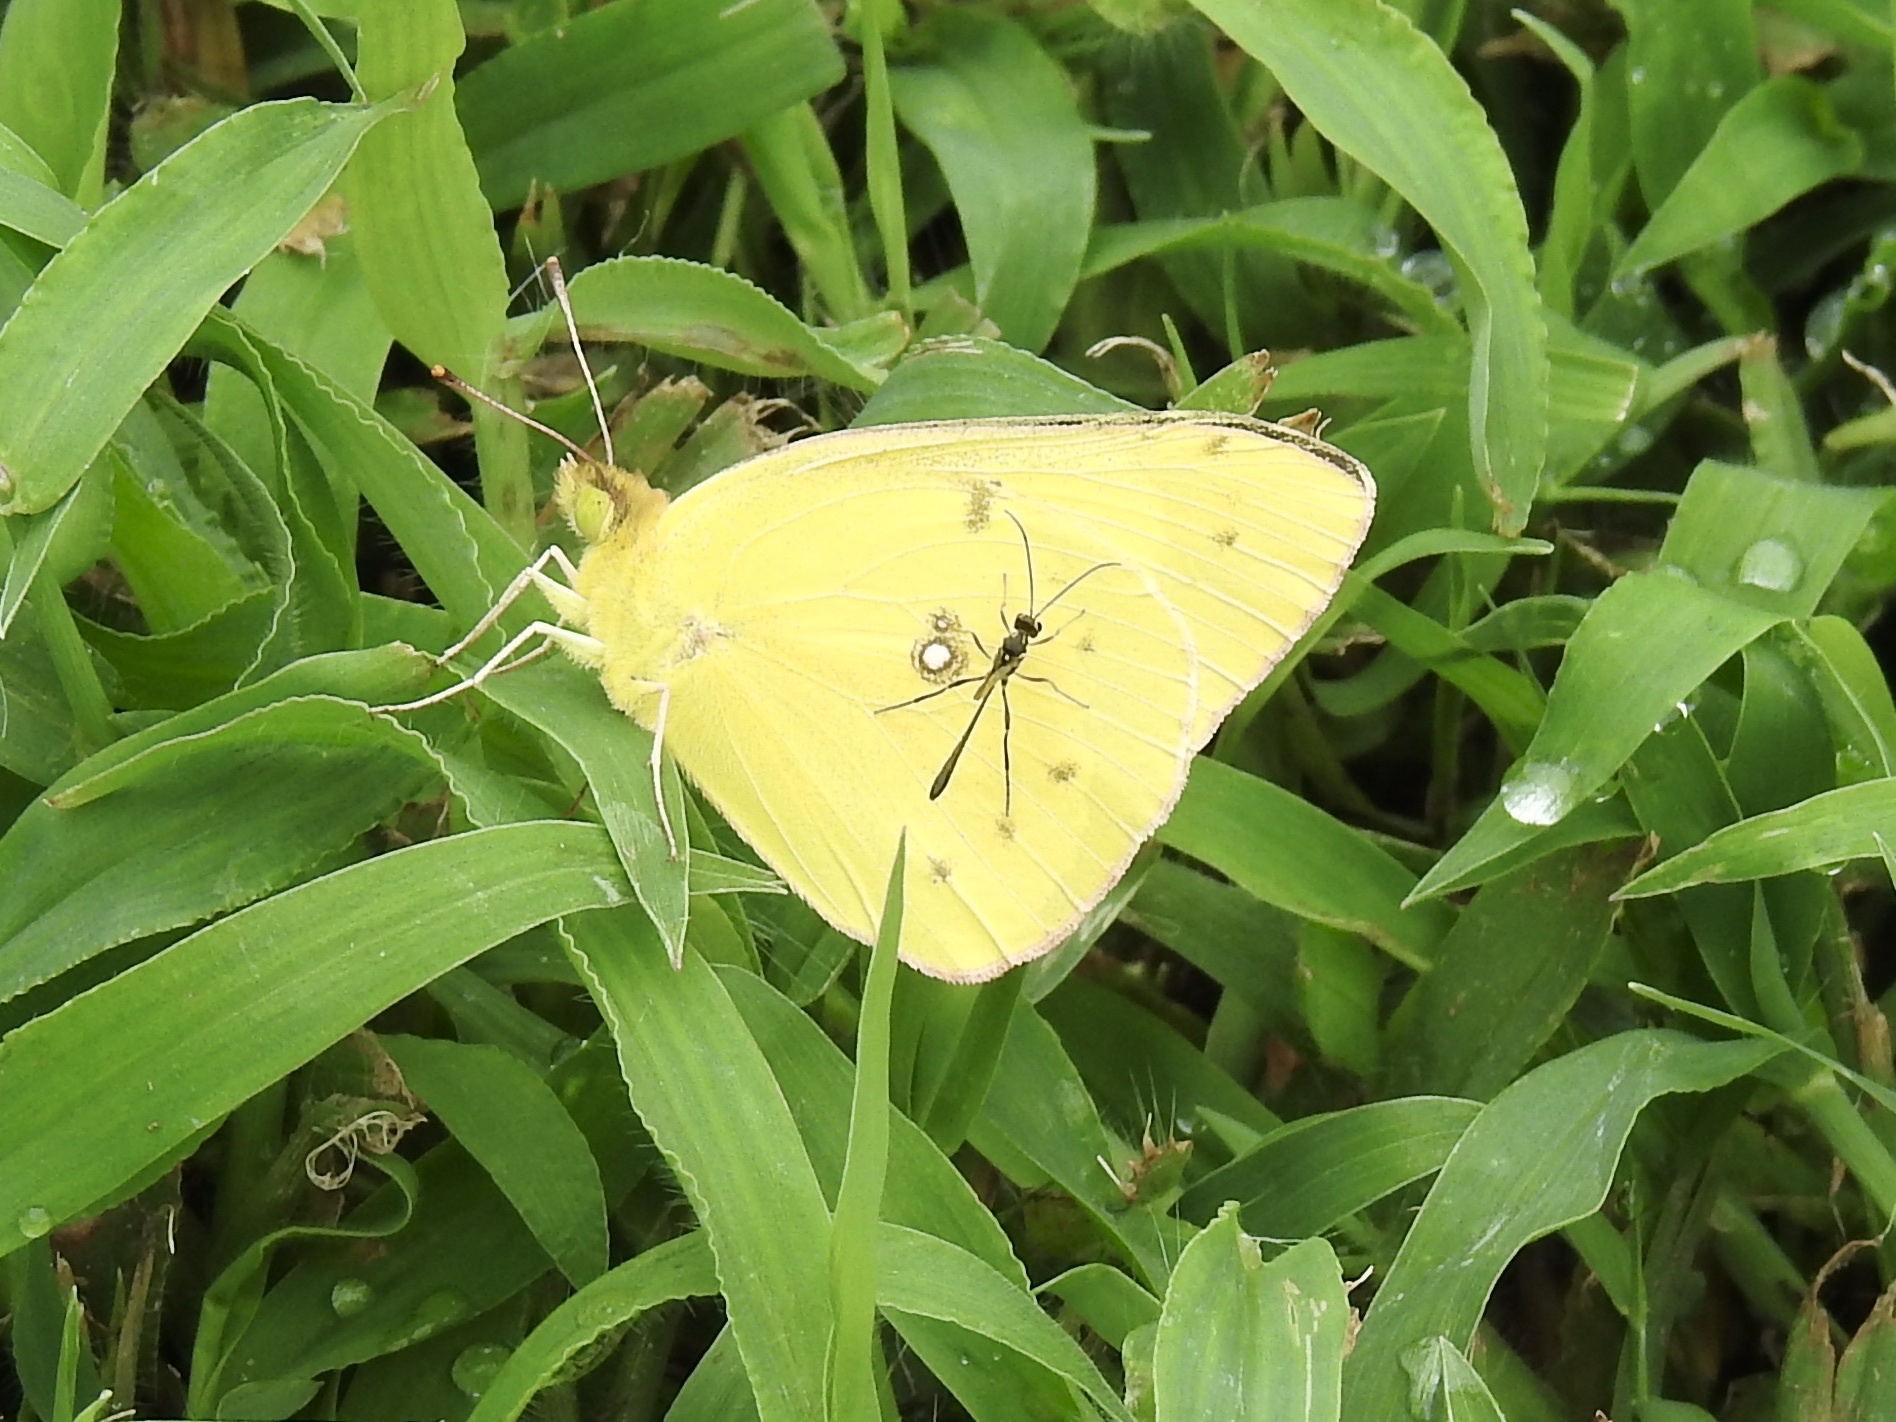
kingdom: Animalia
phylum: Arthropoda
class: Insecta
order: Lepidoptera
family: Pieridae
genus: Colias
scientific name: Colias philodice
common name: Clouded sulphur
